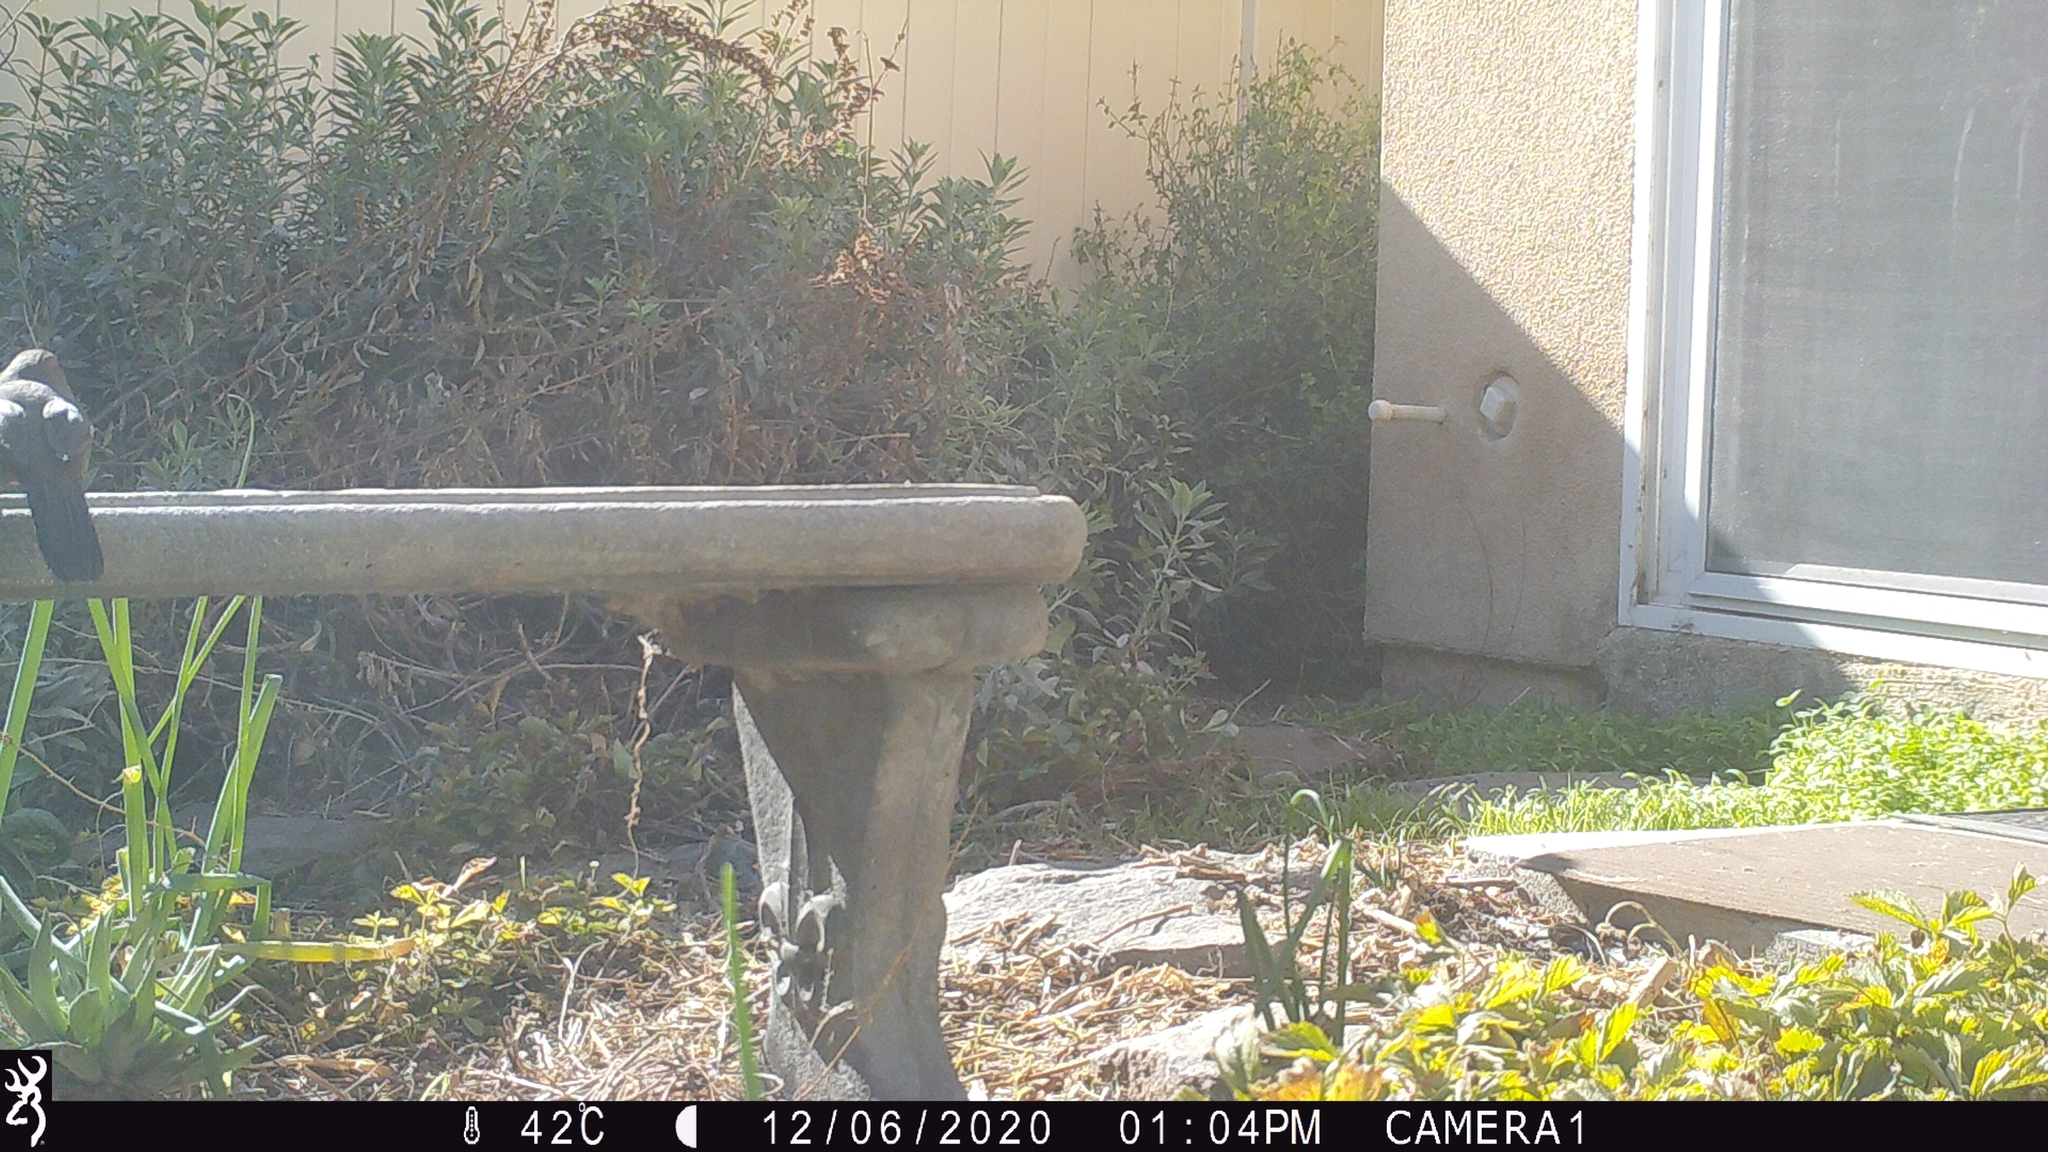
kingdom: Animalia
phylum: Chordata
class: Aves
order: Passeriformes
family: Passerellidae
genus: Melozone
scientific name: Melozone crissalis
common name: California towhee
